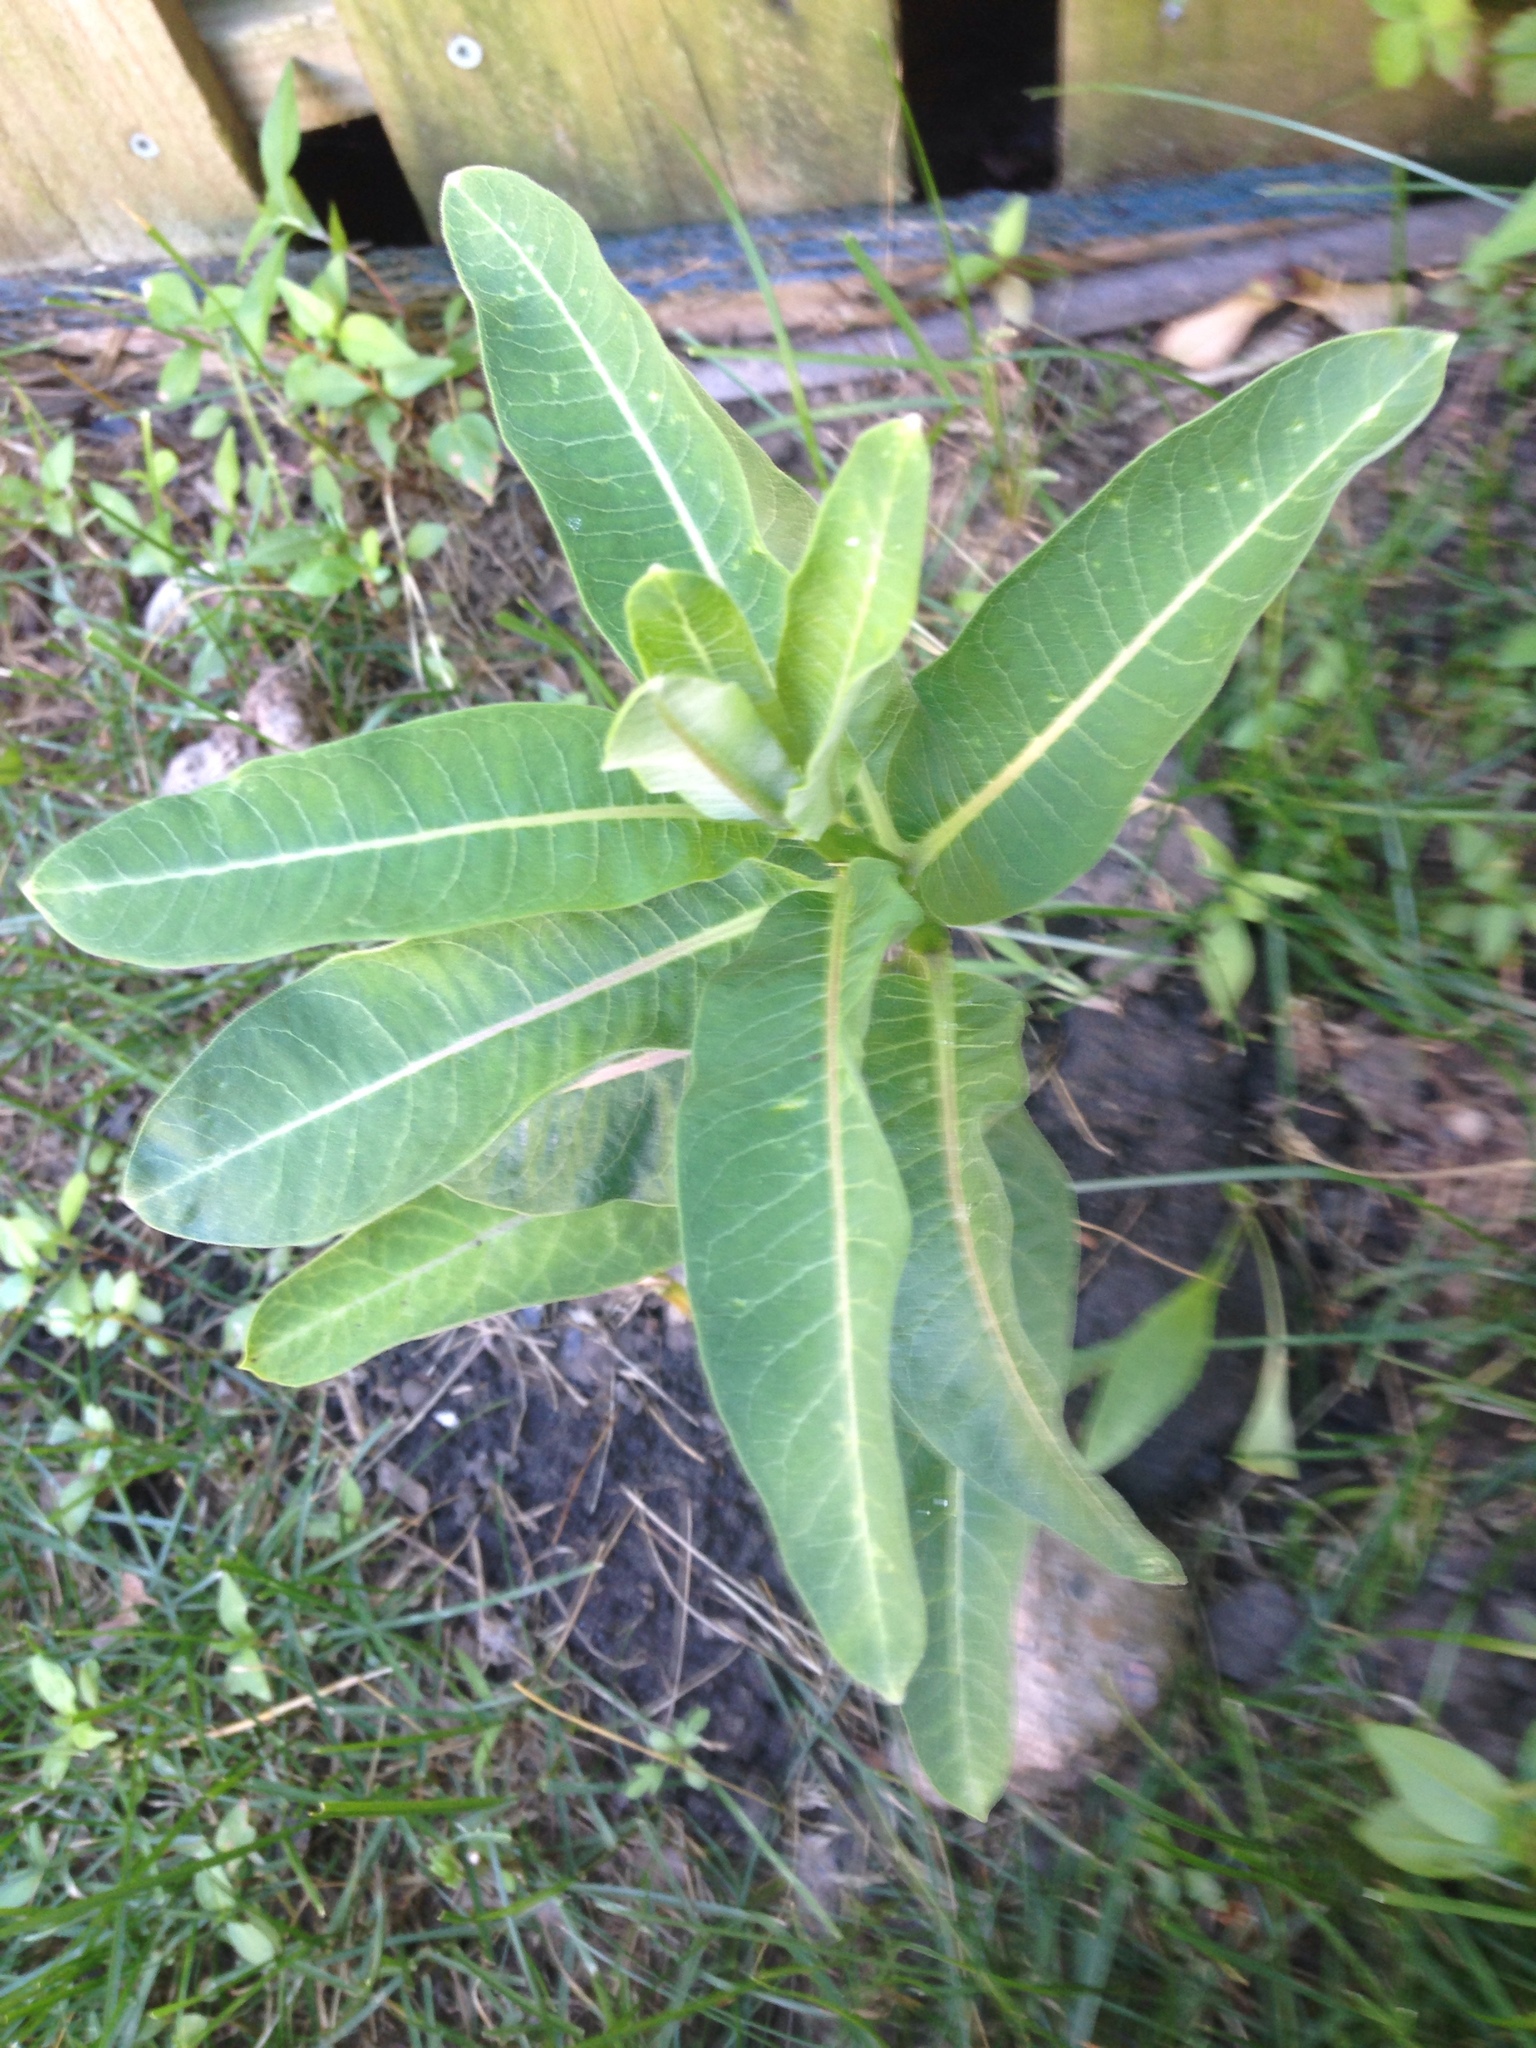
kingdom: Plantae
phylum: Tracheophyta
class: Magnoliopsida
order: Gentianales
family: Apocynaceae
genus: Asclepias
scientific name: Asclepias syriaca
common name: Common milkweed
